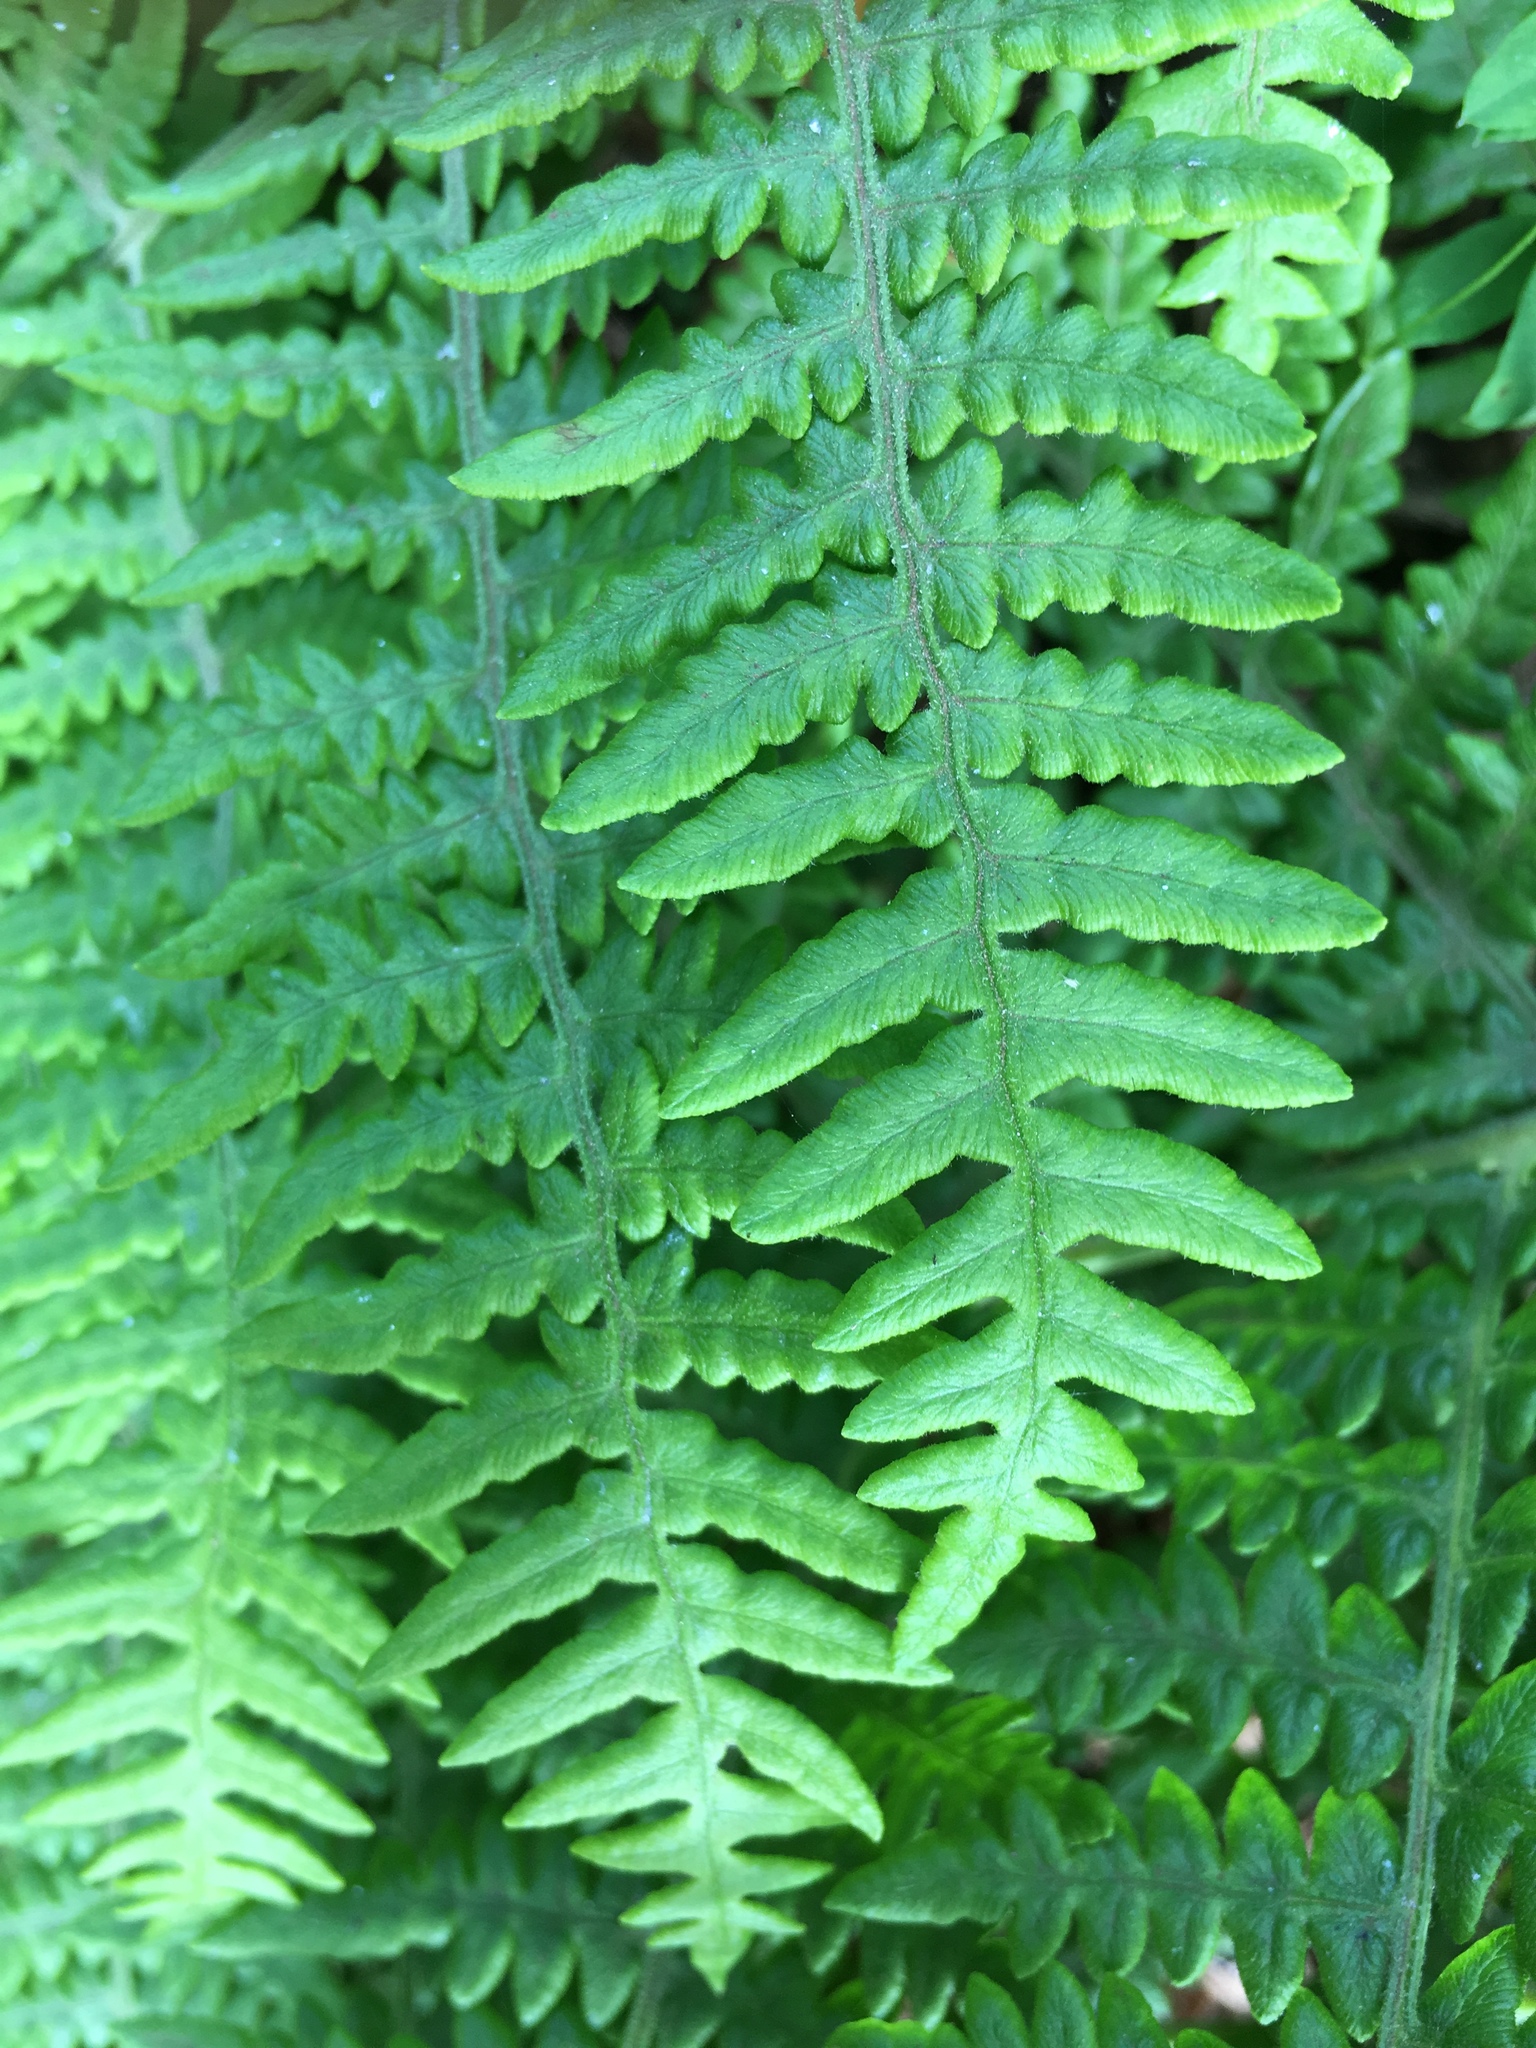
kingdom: Plantae
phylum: Tracheophyta
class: Polypodiopsida
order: Polypodiales
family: Dennstaedtiaceae
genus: Pteridium
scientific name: Pteridium aquilinum
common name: Bracken
